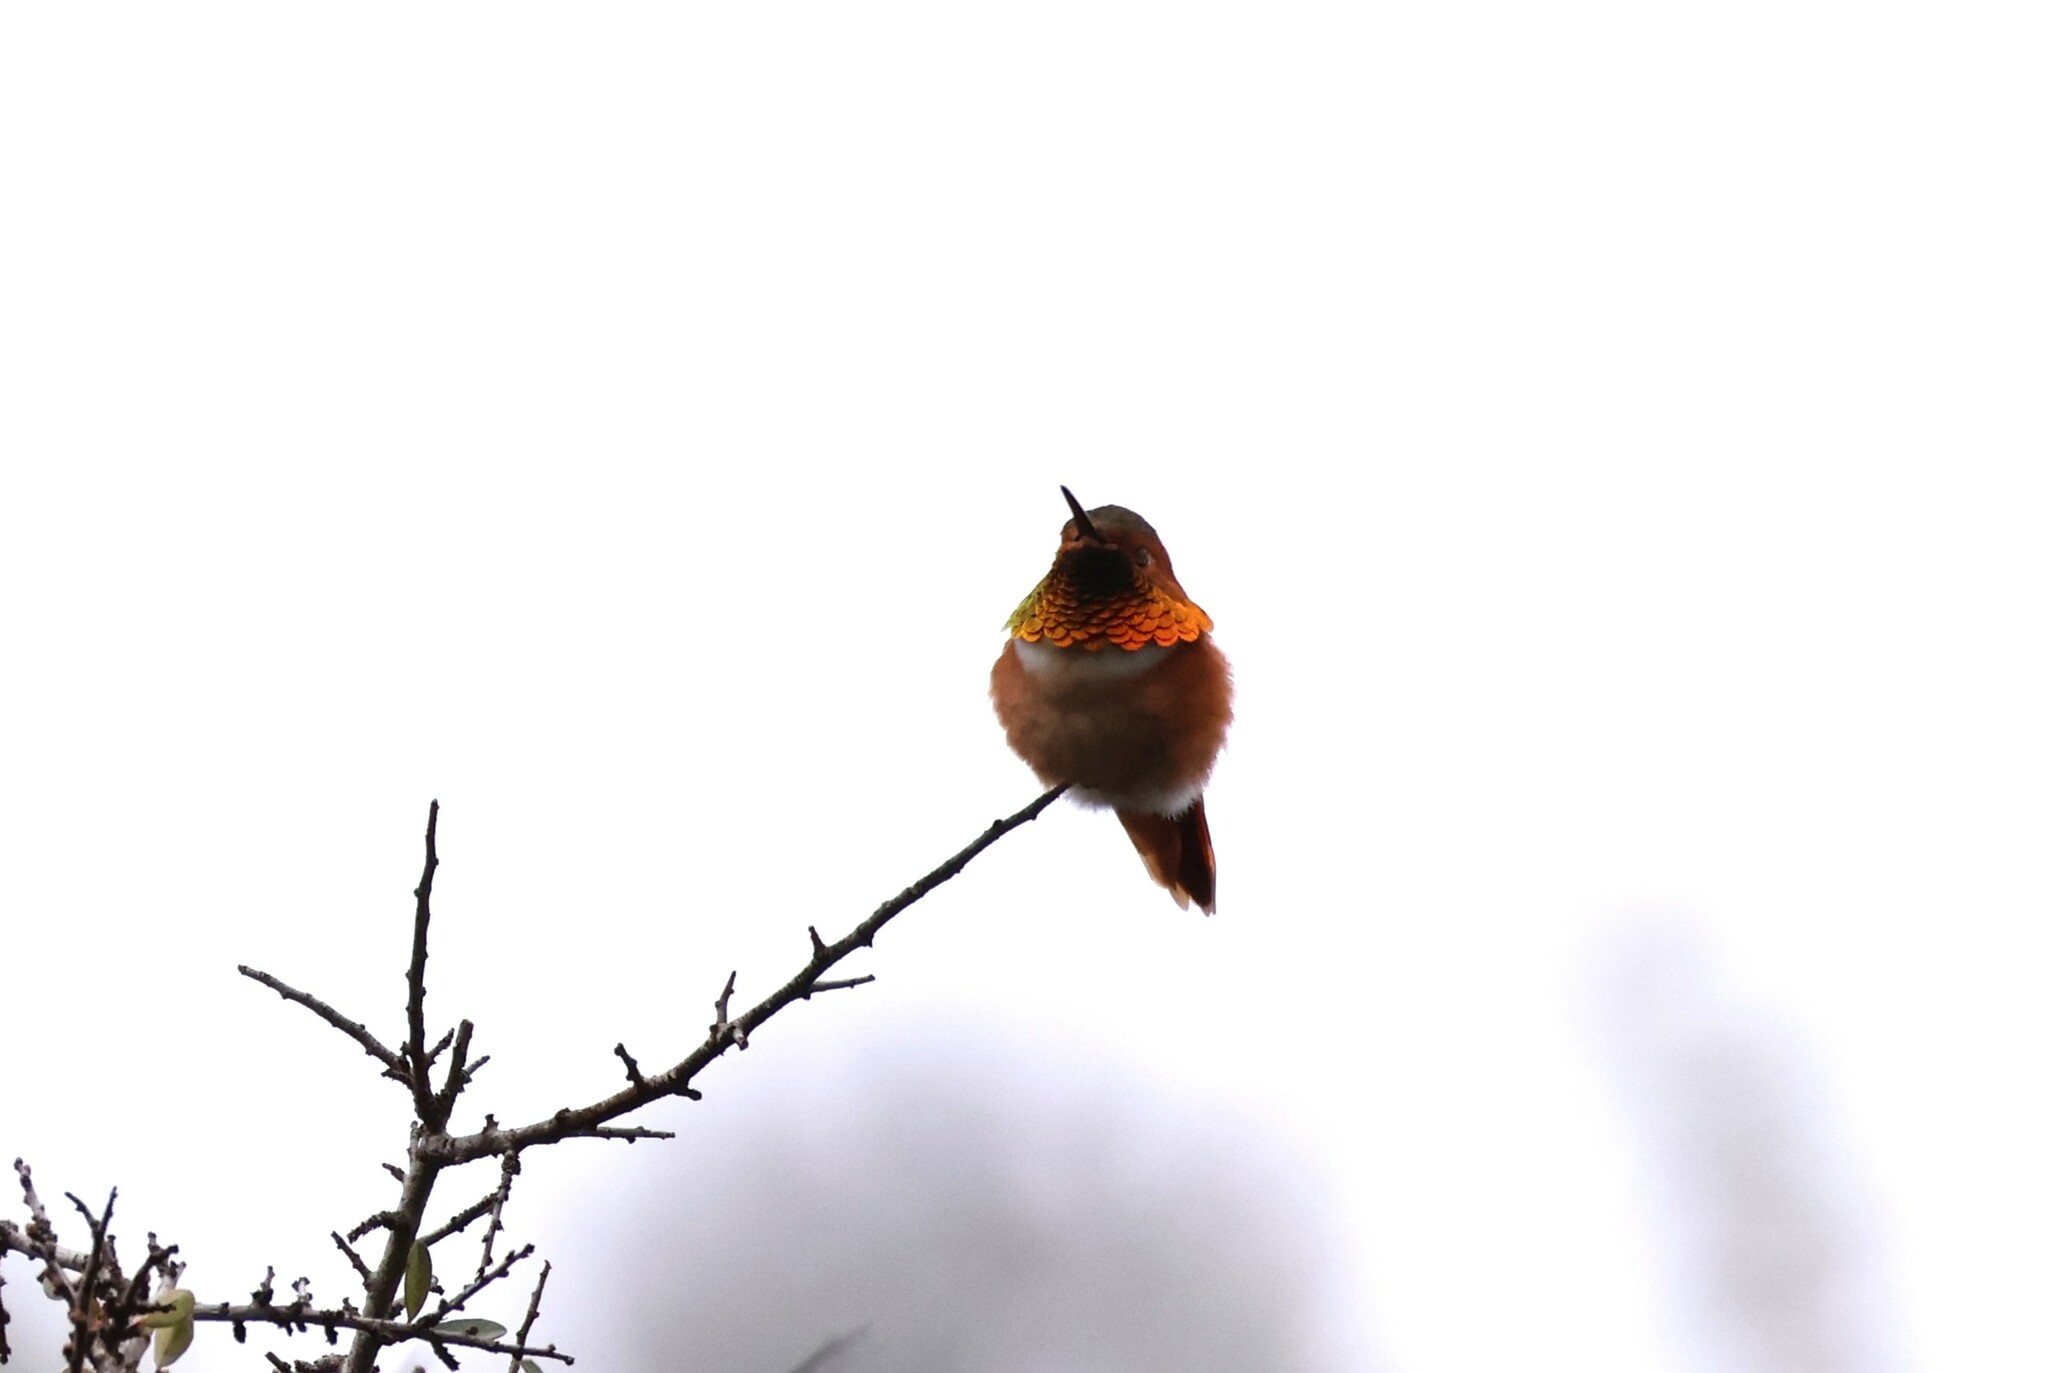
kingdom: Animalia
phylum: Chordata
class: Aves
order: Apodiformes
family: Trochilidae
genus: Selasphorus
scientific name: Selasphorus sasin
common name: Allen's hummingbird
